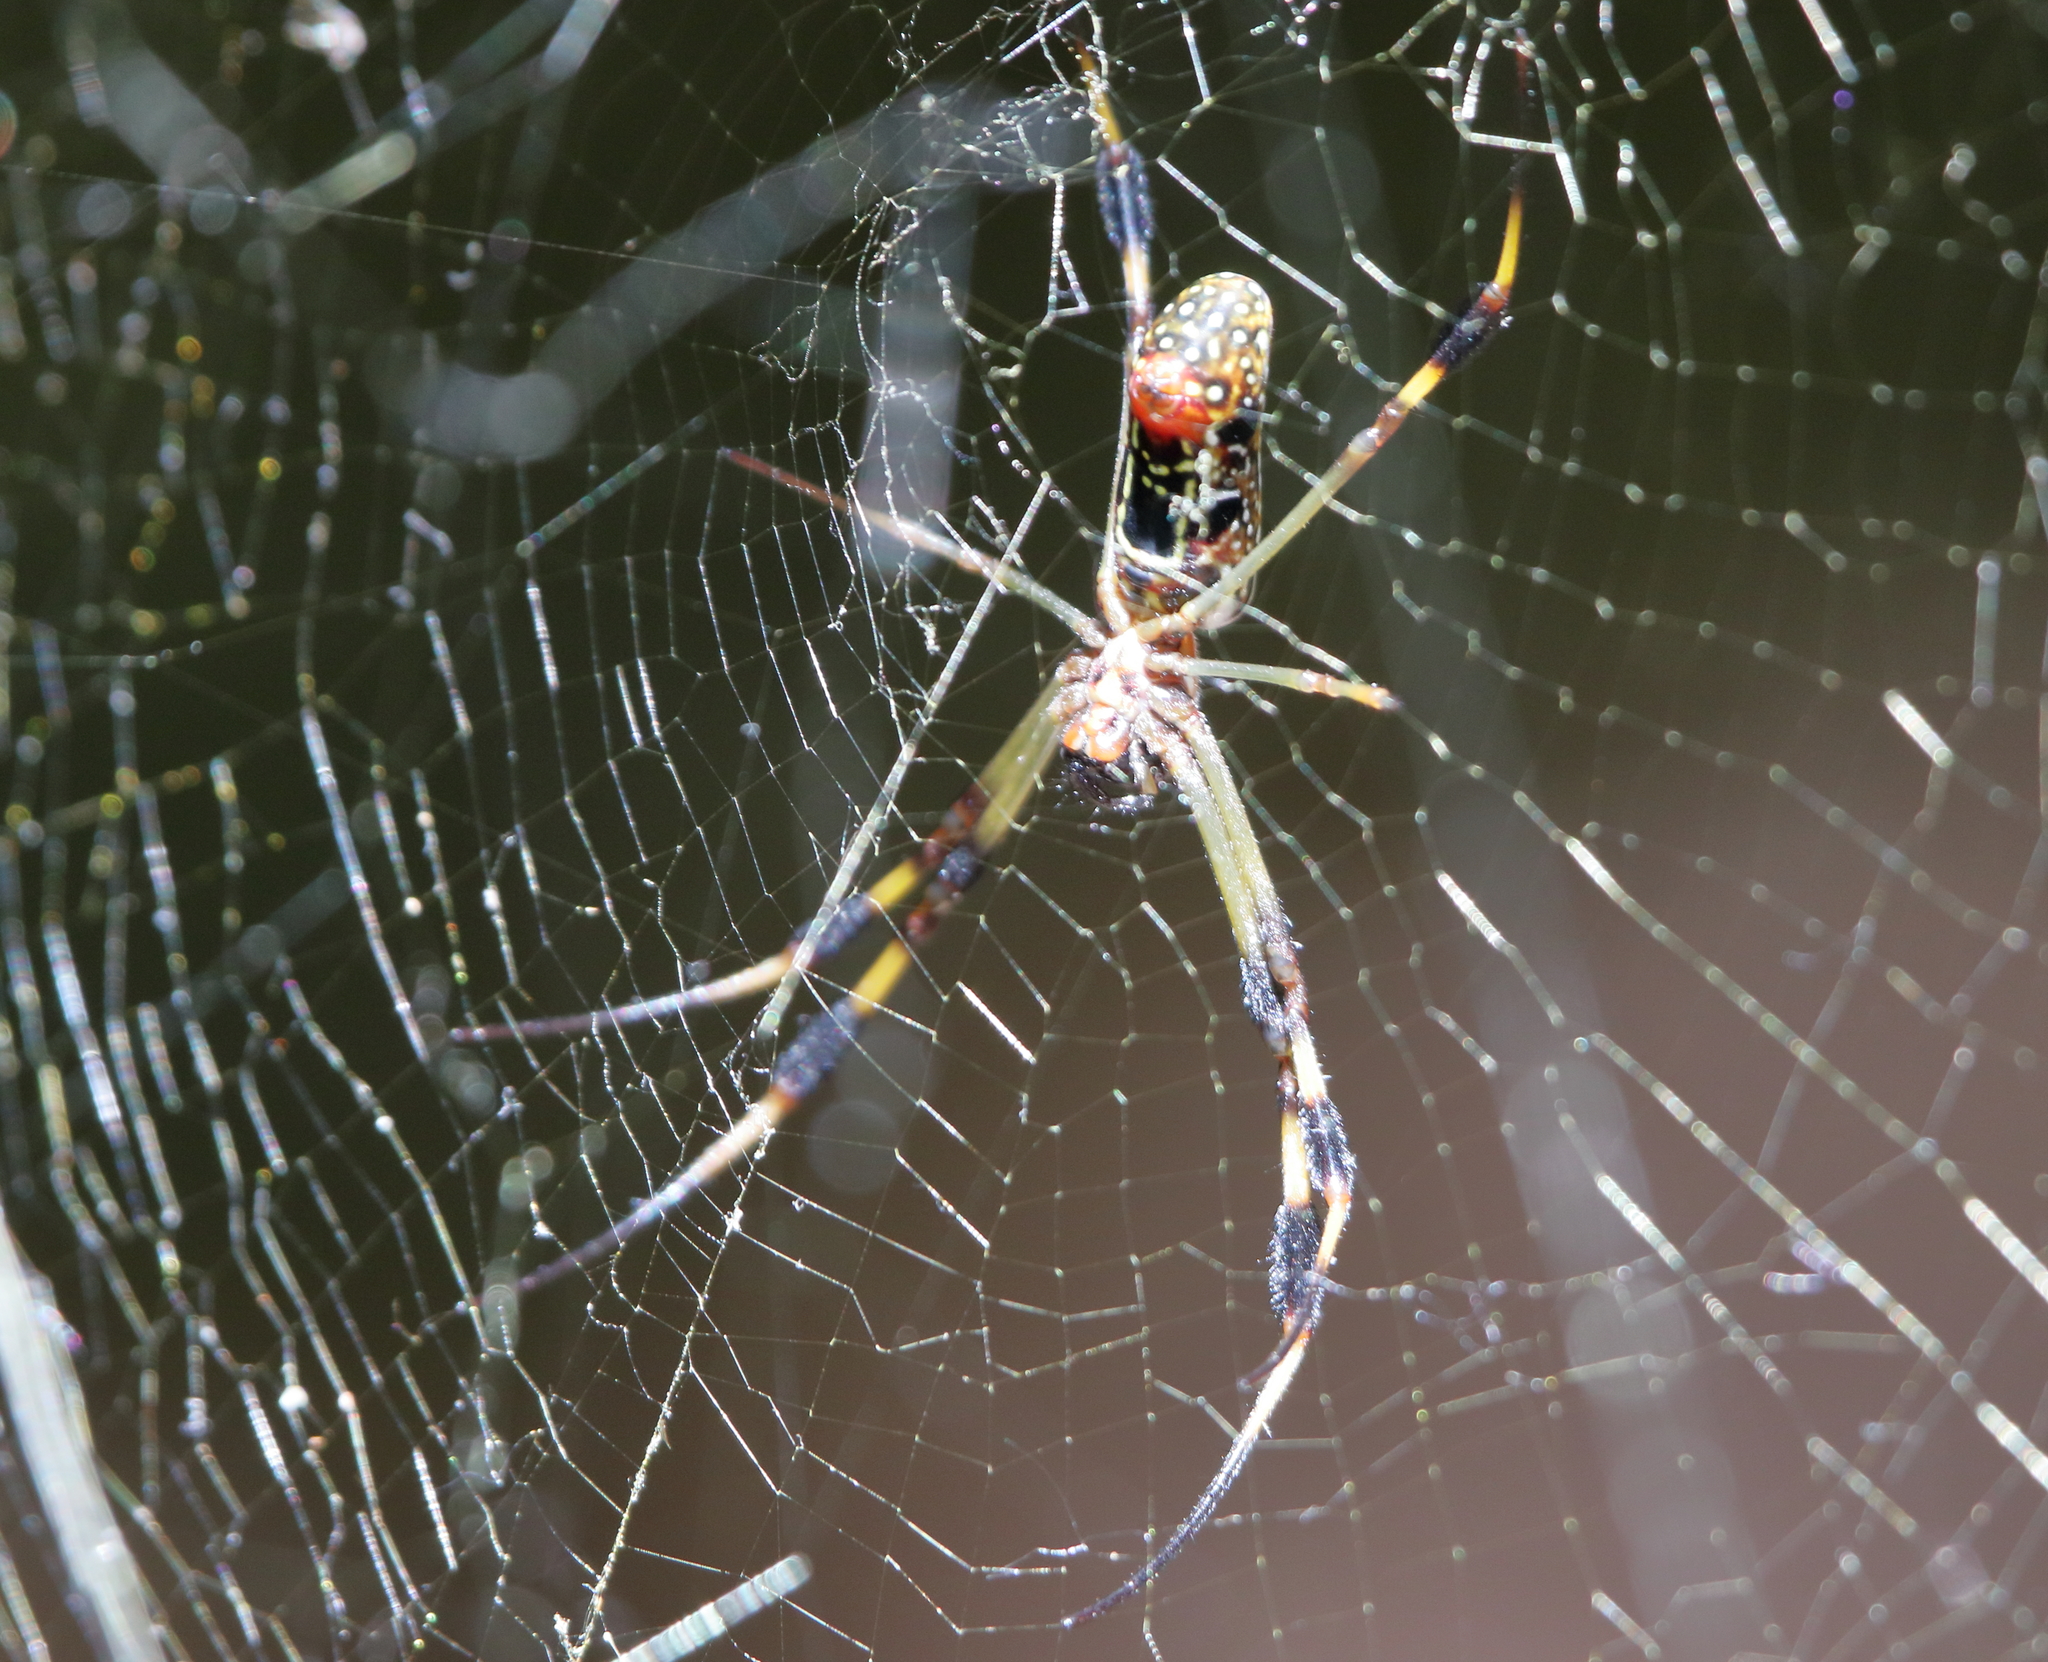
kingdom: Animalia
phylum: Arthropoda
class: Arachnida
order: Araneae
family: Araneidae
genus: Trichonephila
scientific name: Trichonephila clavipes
